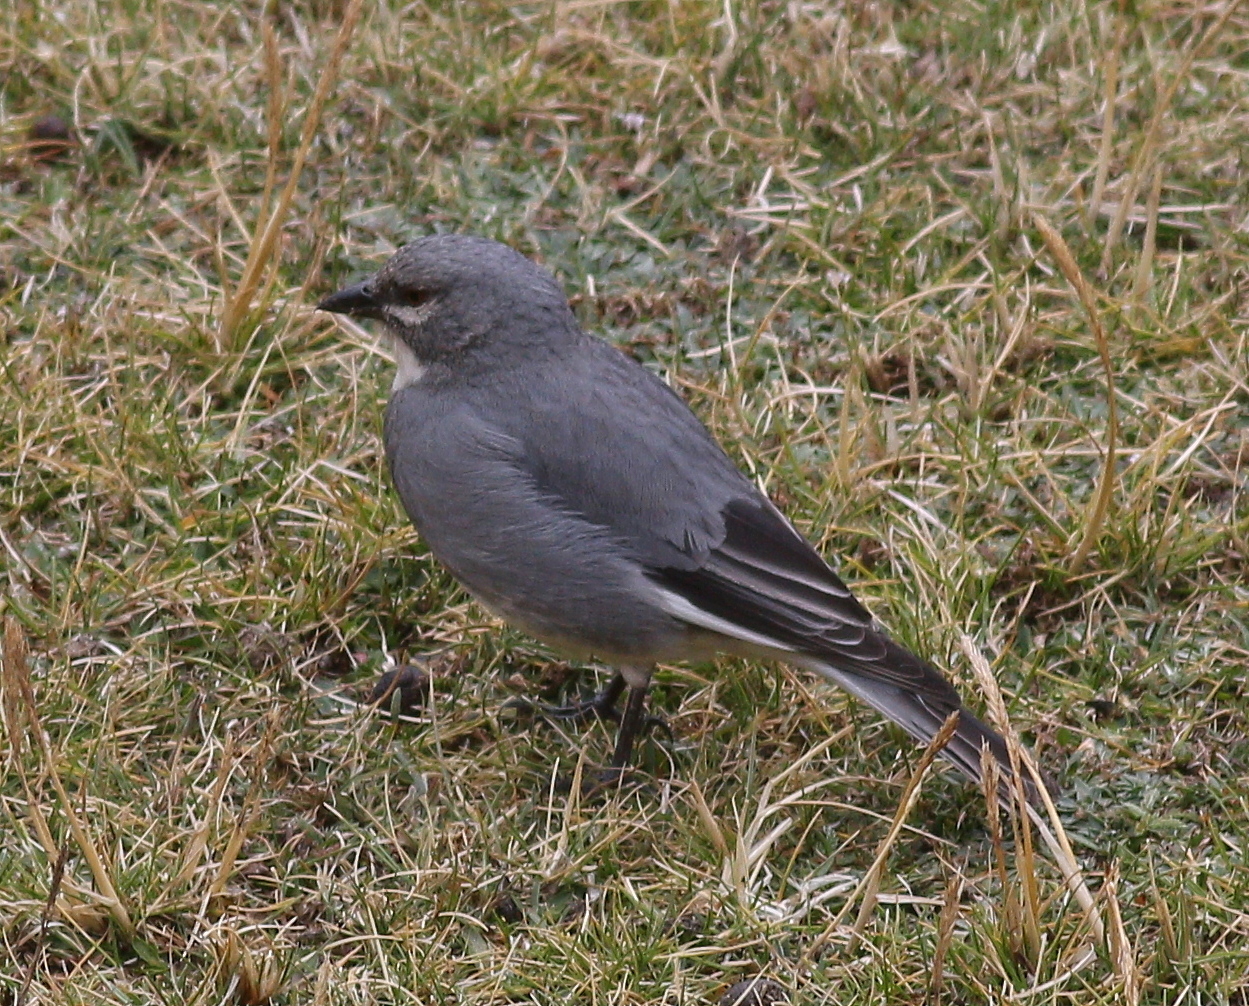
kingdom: Animalia
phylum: Chordata
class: Aves
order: Passeriformes
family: Thraupidae
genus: Idiopsar
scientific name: Idiopsar speculifer
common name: Glacier finch
